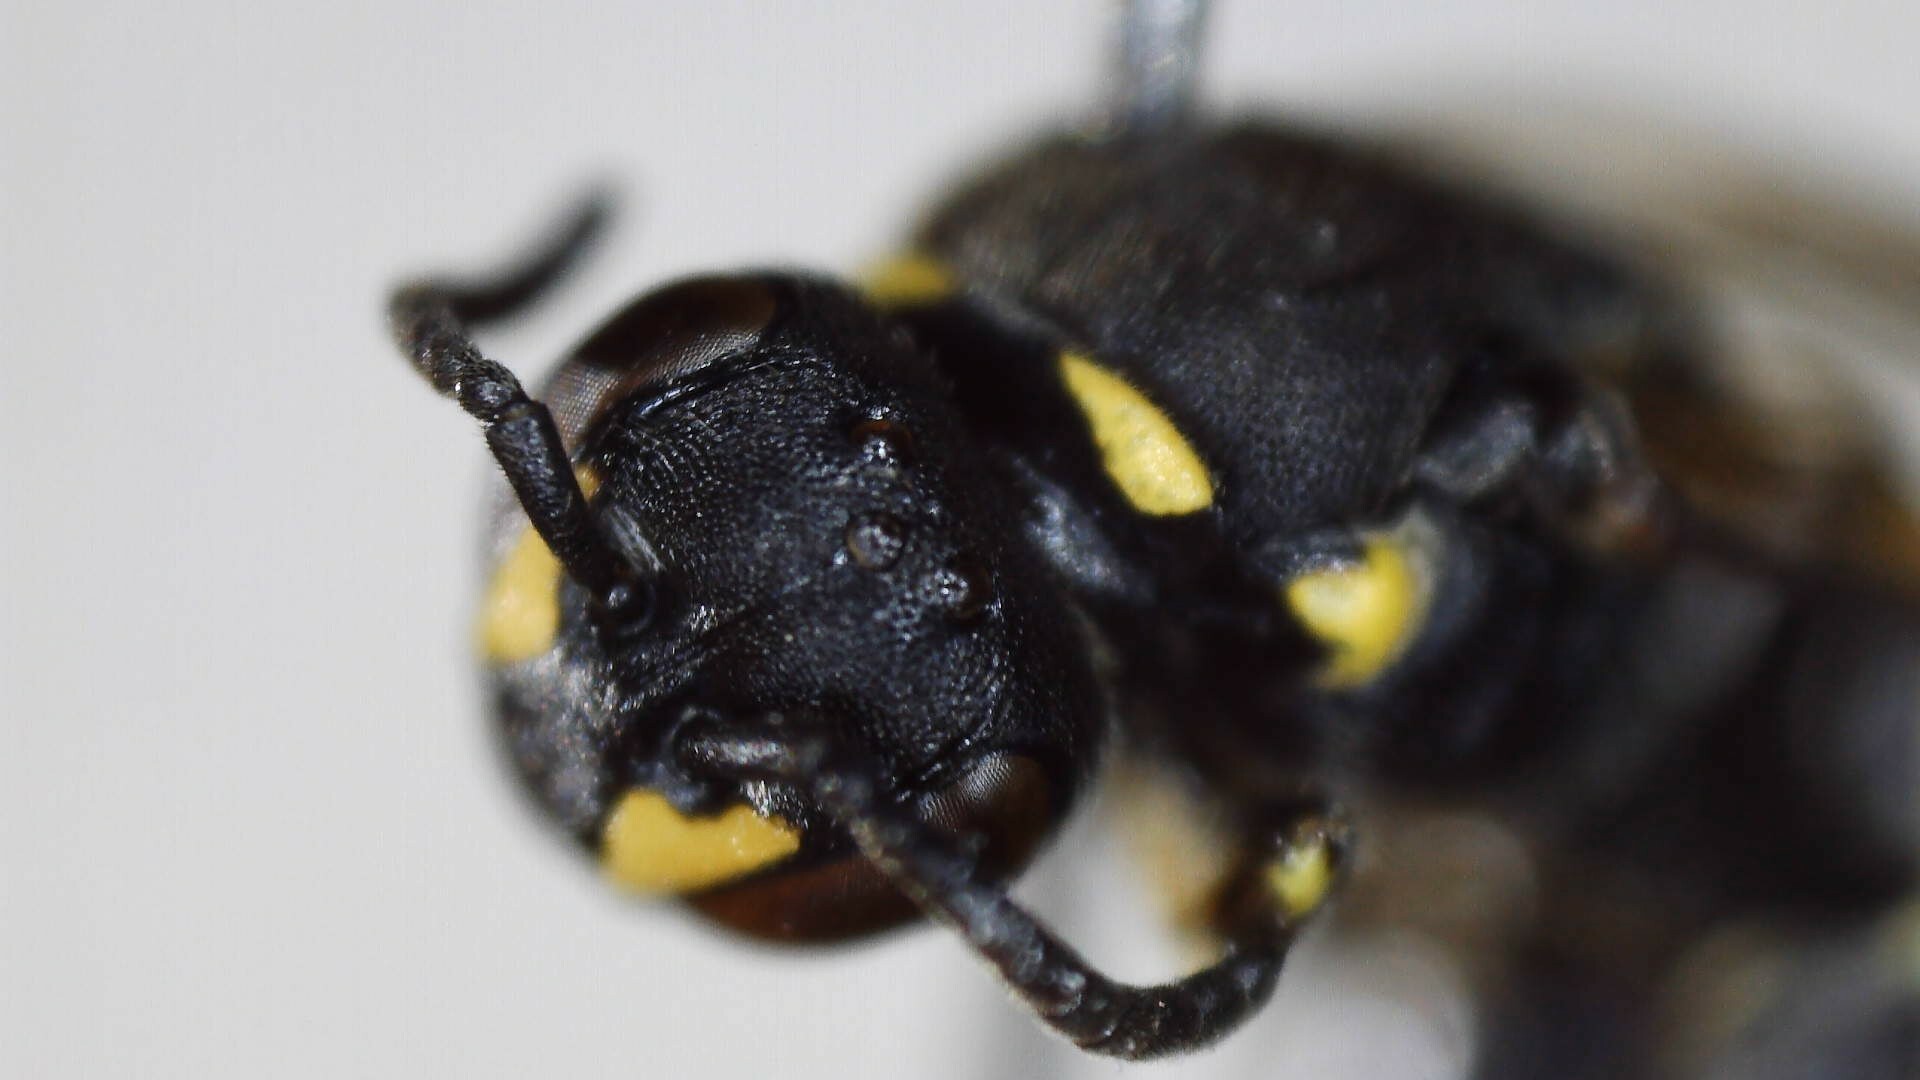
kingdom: Animalia
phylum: Arthropoda
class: Insecta
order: Hymenoptera
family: Colletidae
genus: Hylaeus
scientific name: Hylaeus modestus
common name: Yellow-faced bee
